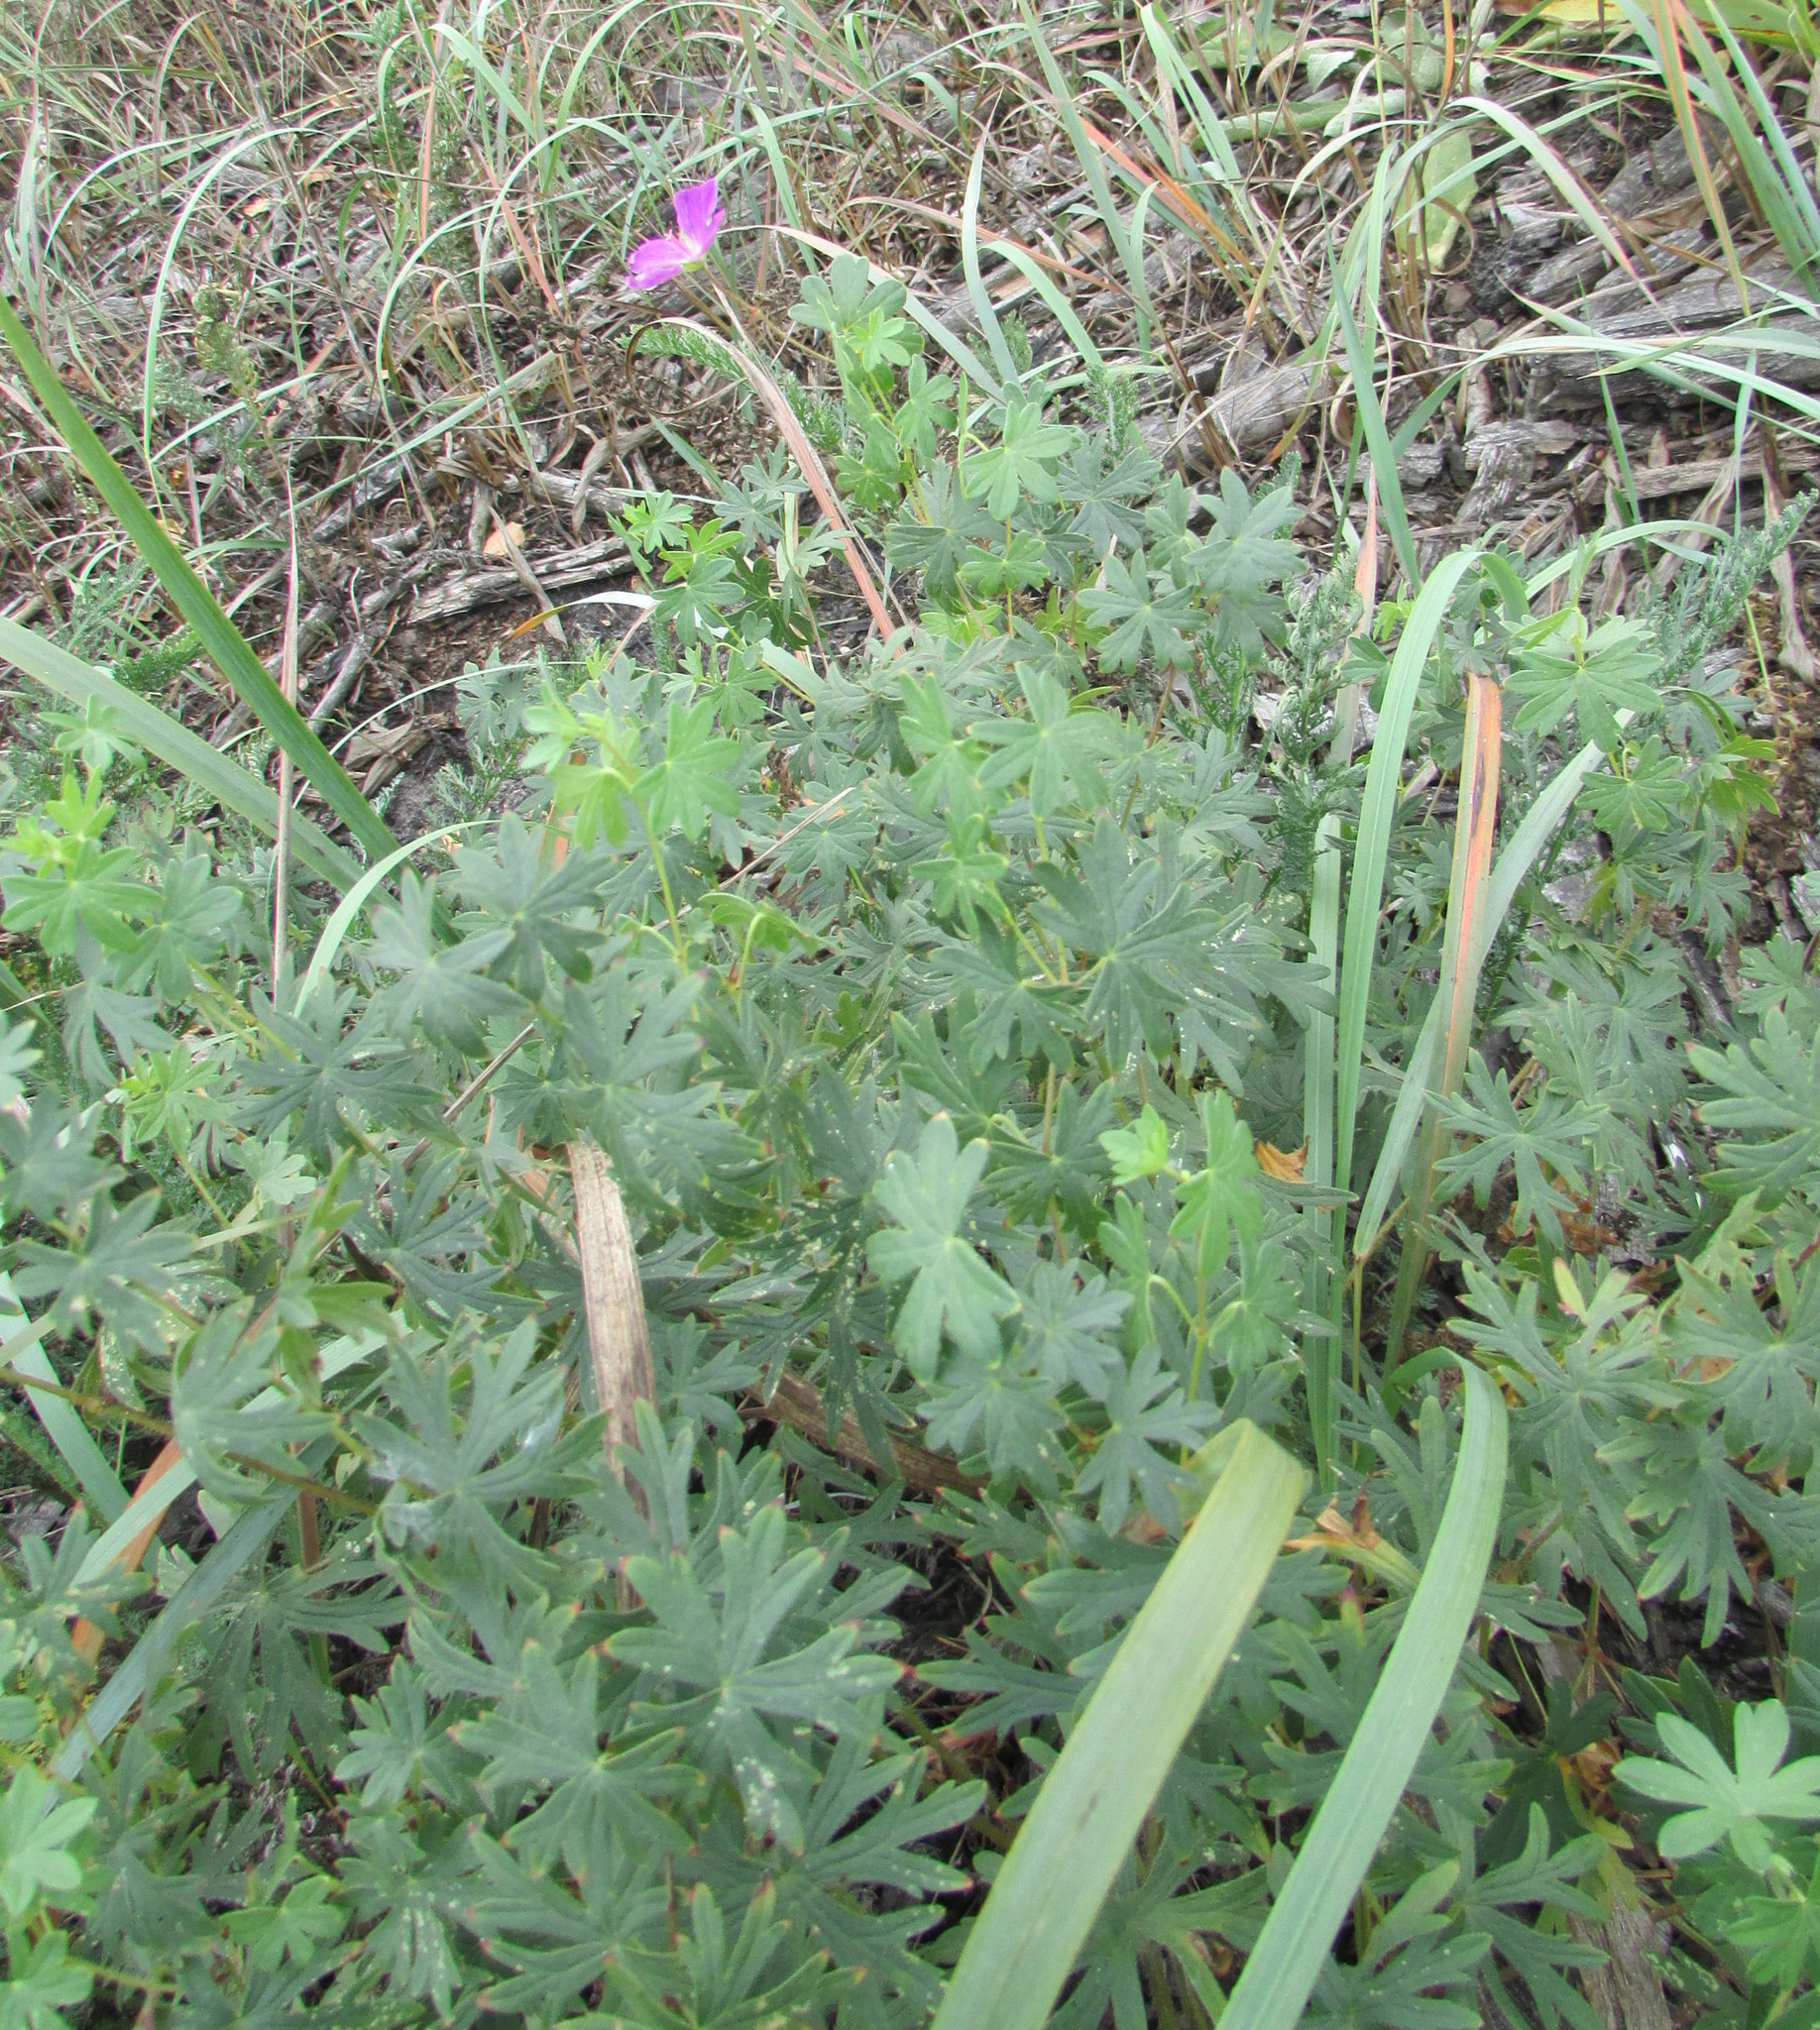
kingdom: Plantae
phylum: Tracheophyta
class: Magnoliopsida
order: Geraniales
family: Geraniaceae
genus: Geranium
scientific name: Geranium sanguineum
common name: Bloody crane's-bill
